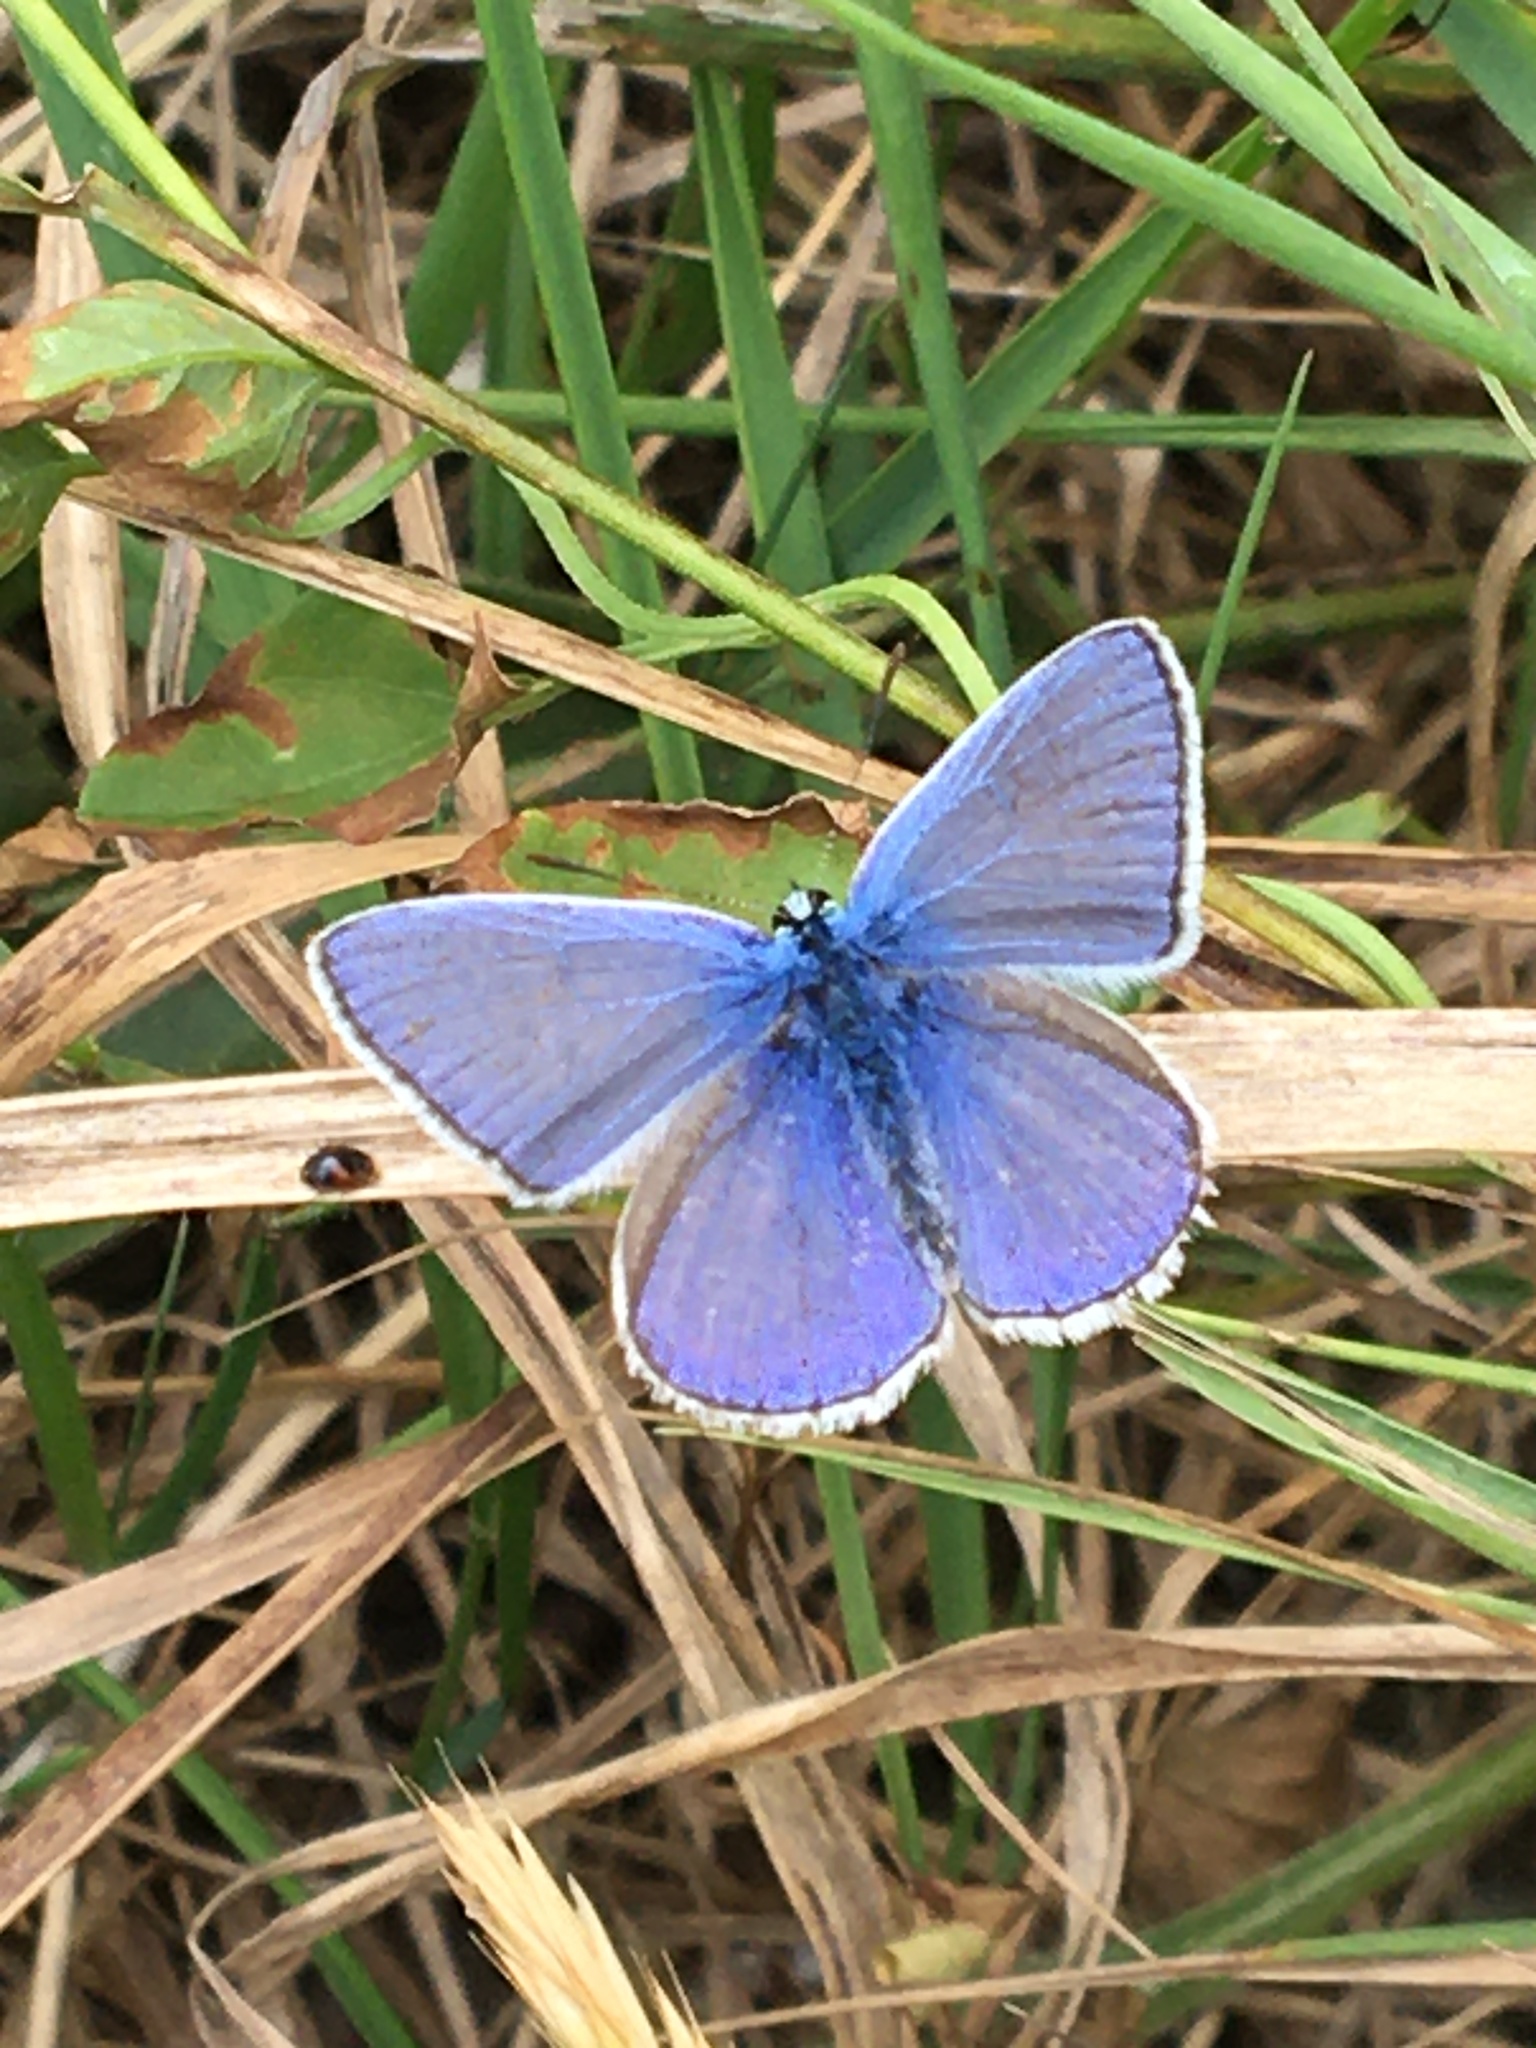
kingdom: Animalia
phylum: Arthropoda
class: Insecta
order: Lepidoptera
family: Lycaenidae
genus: Polyommatus
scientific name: Polyommatus icarus
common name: Common blue
